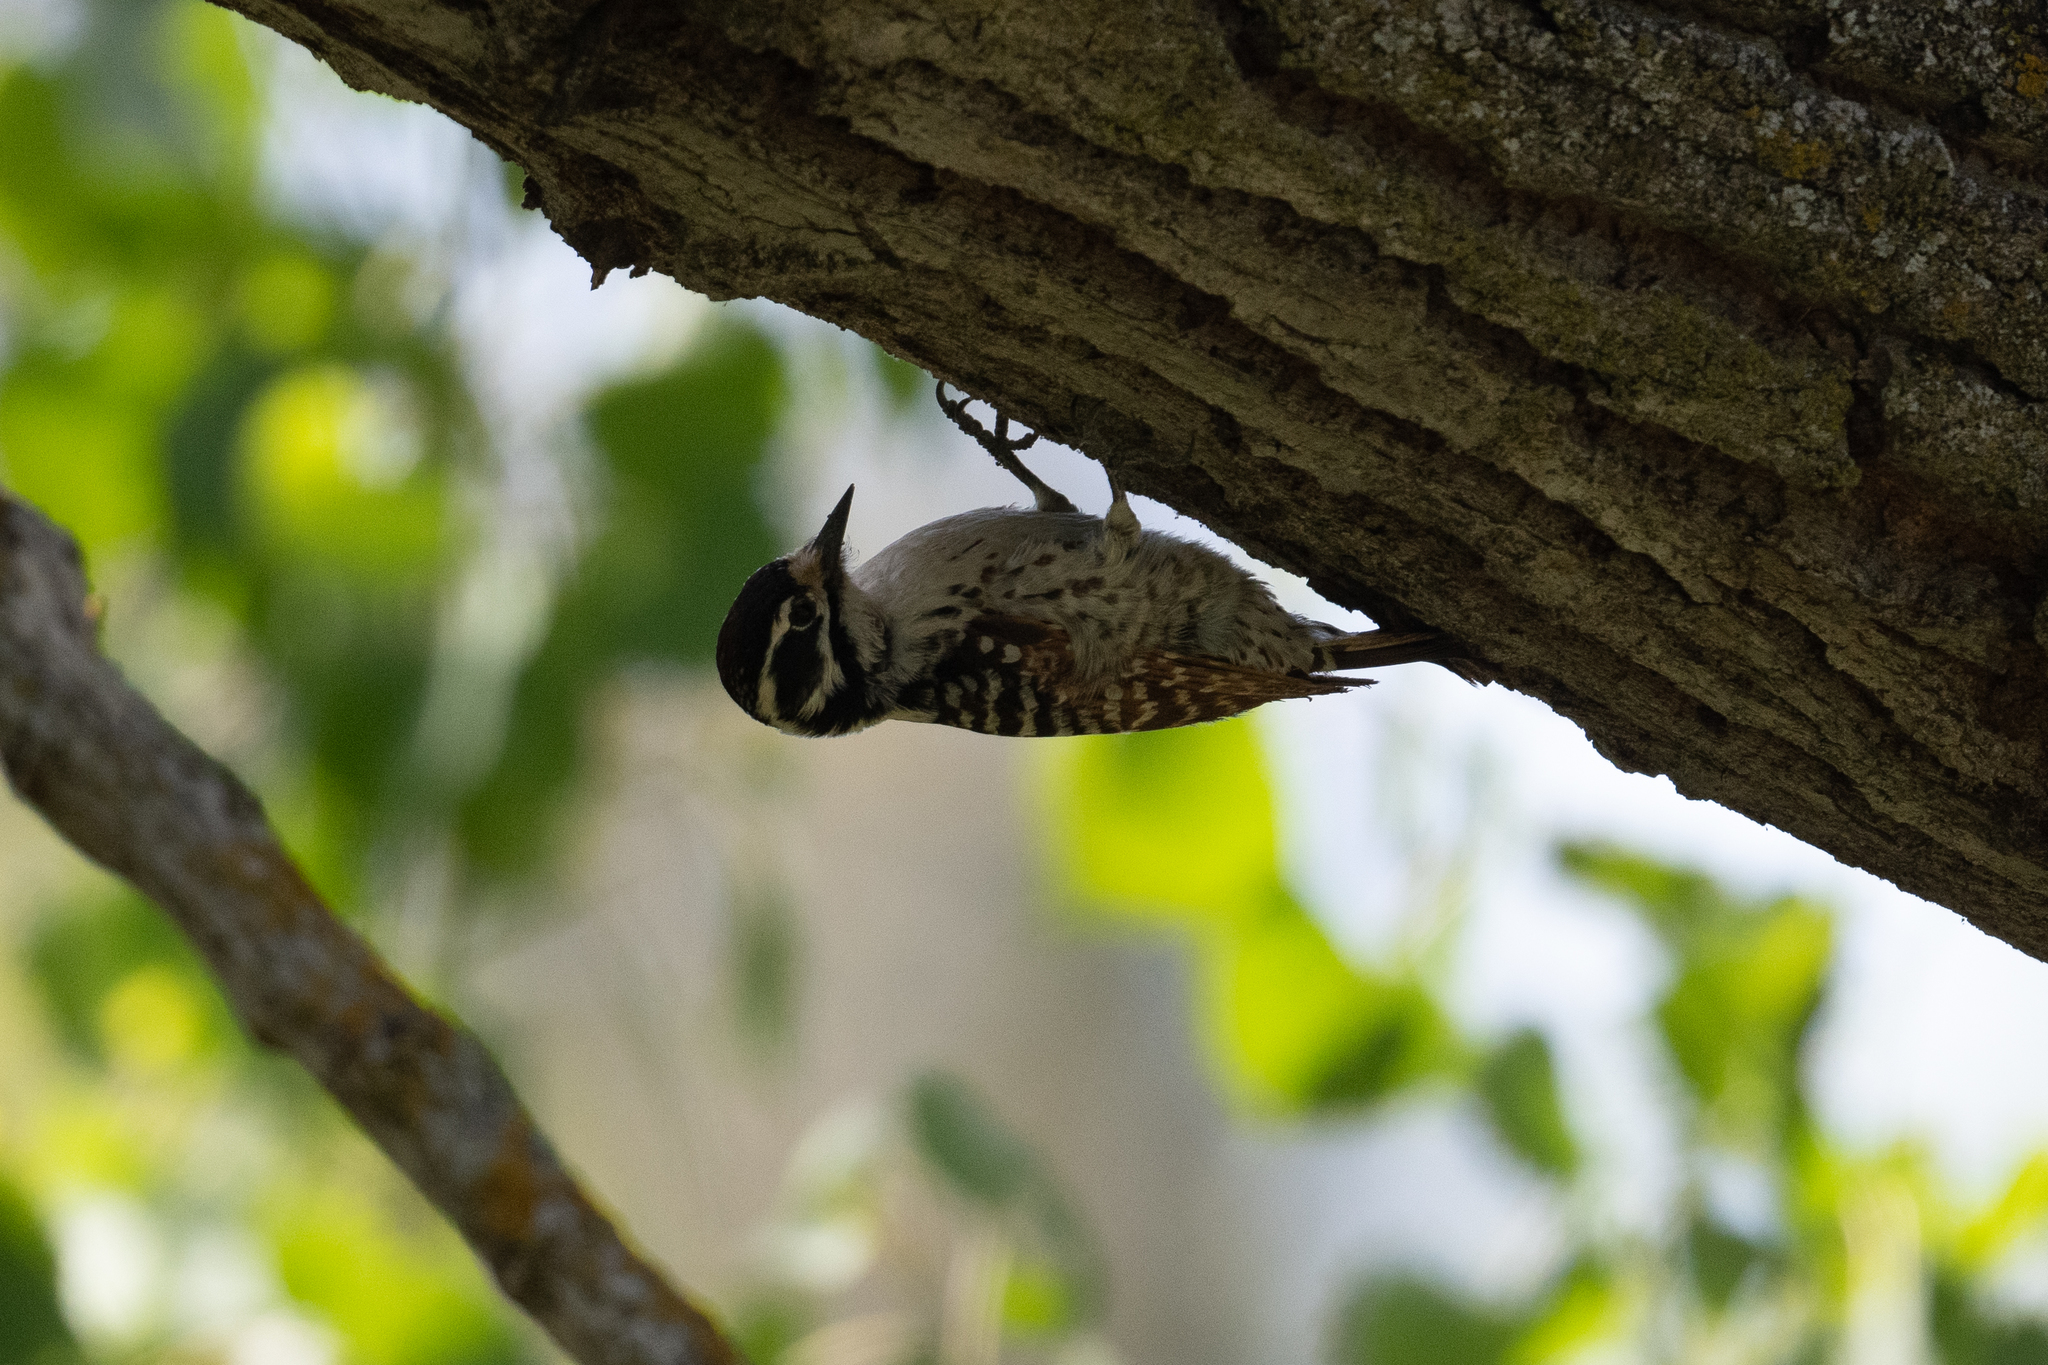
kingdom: Animalia
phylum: Chordata
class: Aves
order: Piciformes
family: Picidae
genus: Dryobates
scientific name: Dryobates nuttallii
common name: Nuttall's woodpecker
